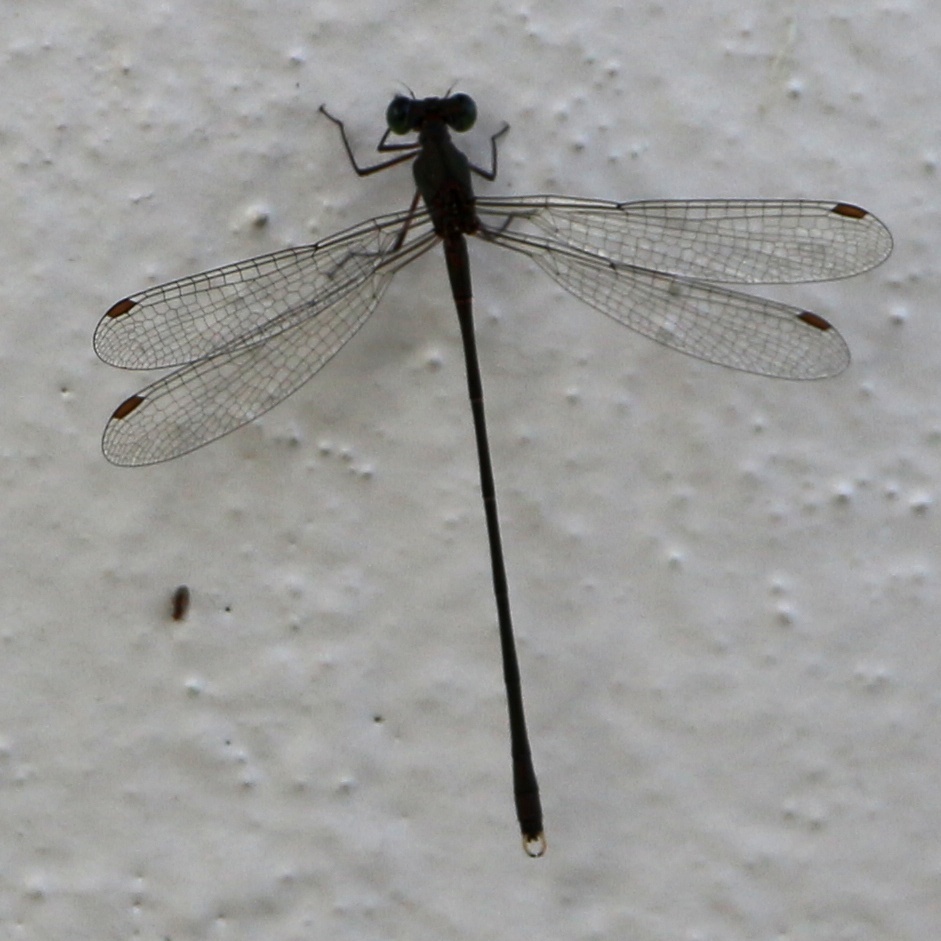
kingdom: Animalia
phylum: Arthropoda
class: Insecta
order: Odonata
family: Lestidae
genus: Chalcolestes
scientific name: Chalcolestes parvidens
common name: Eastern willow spreadwing
